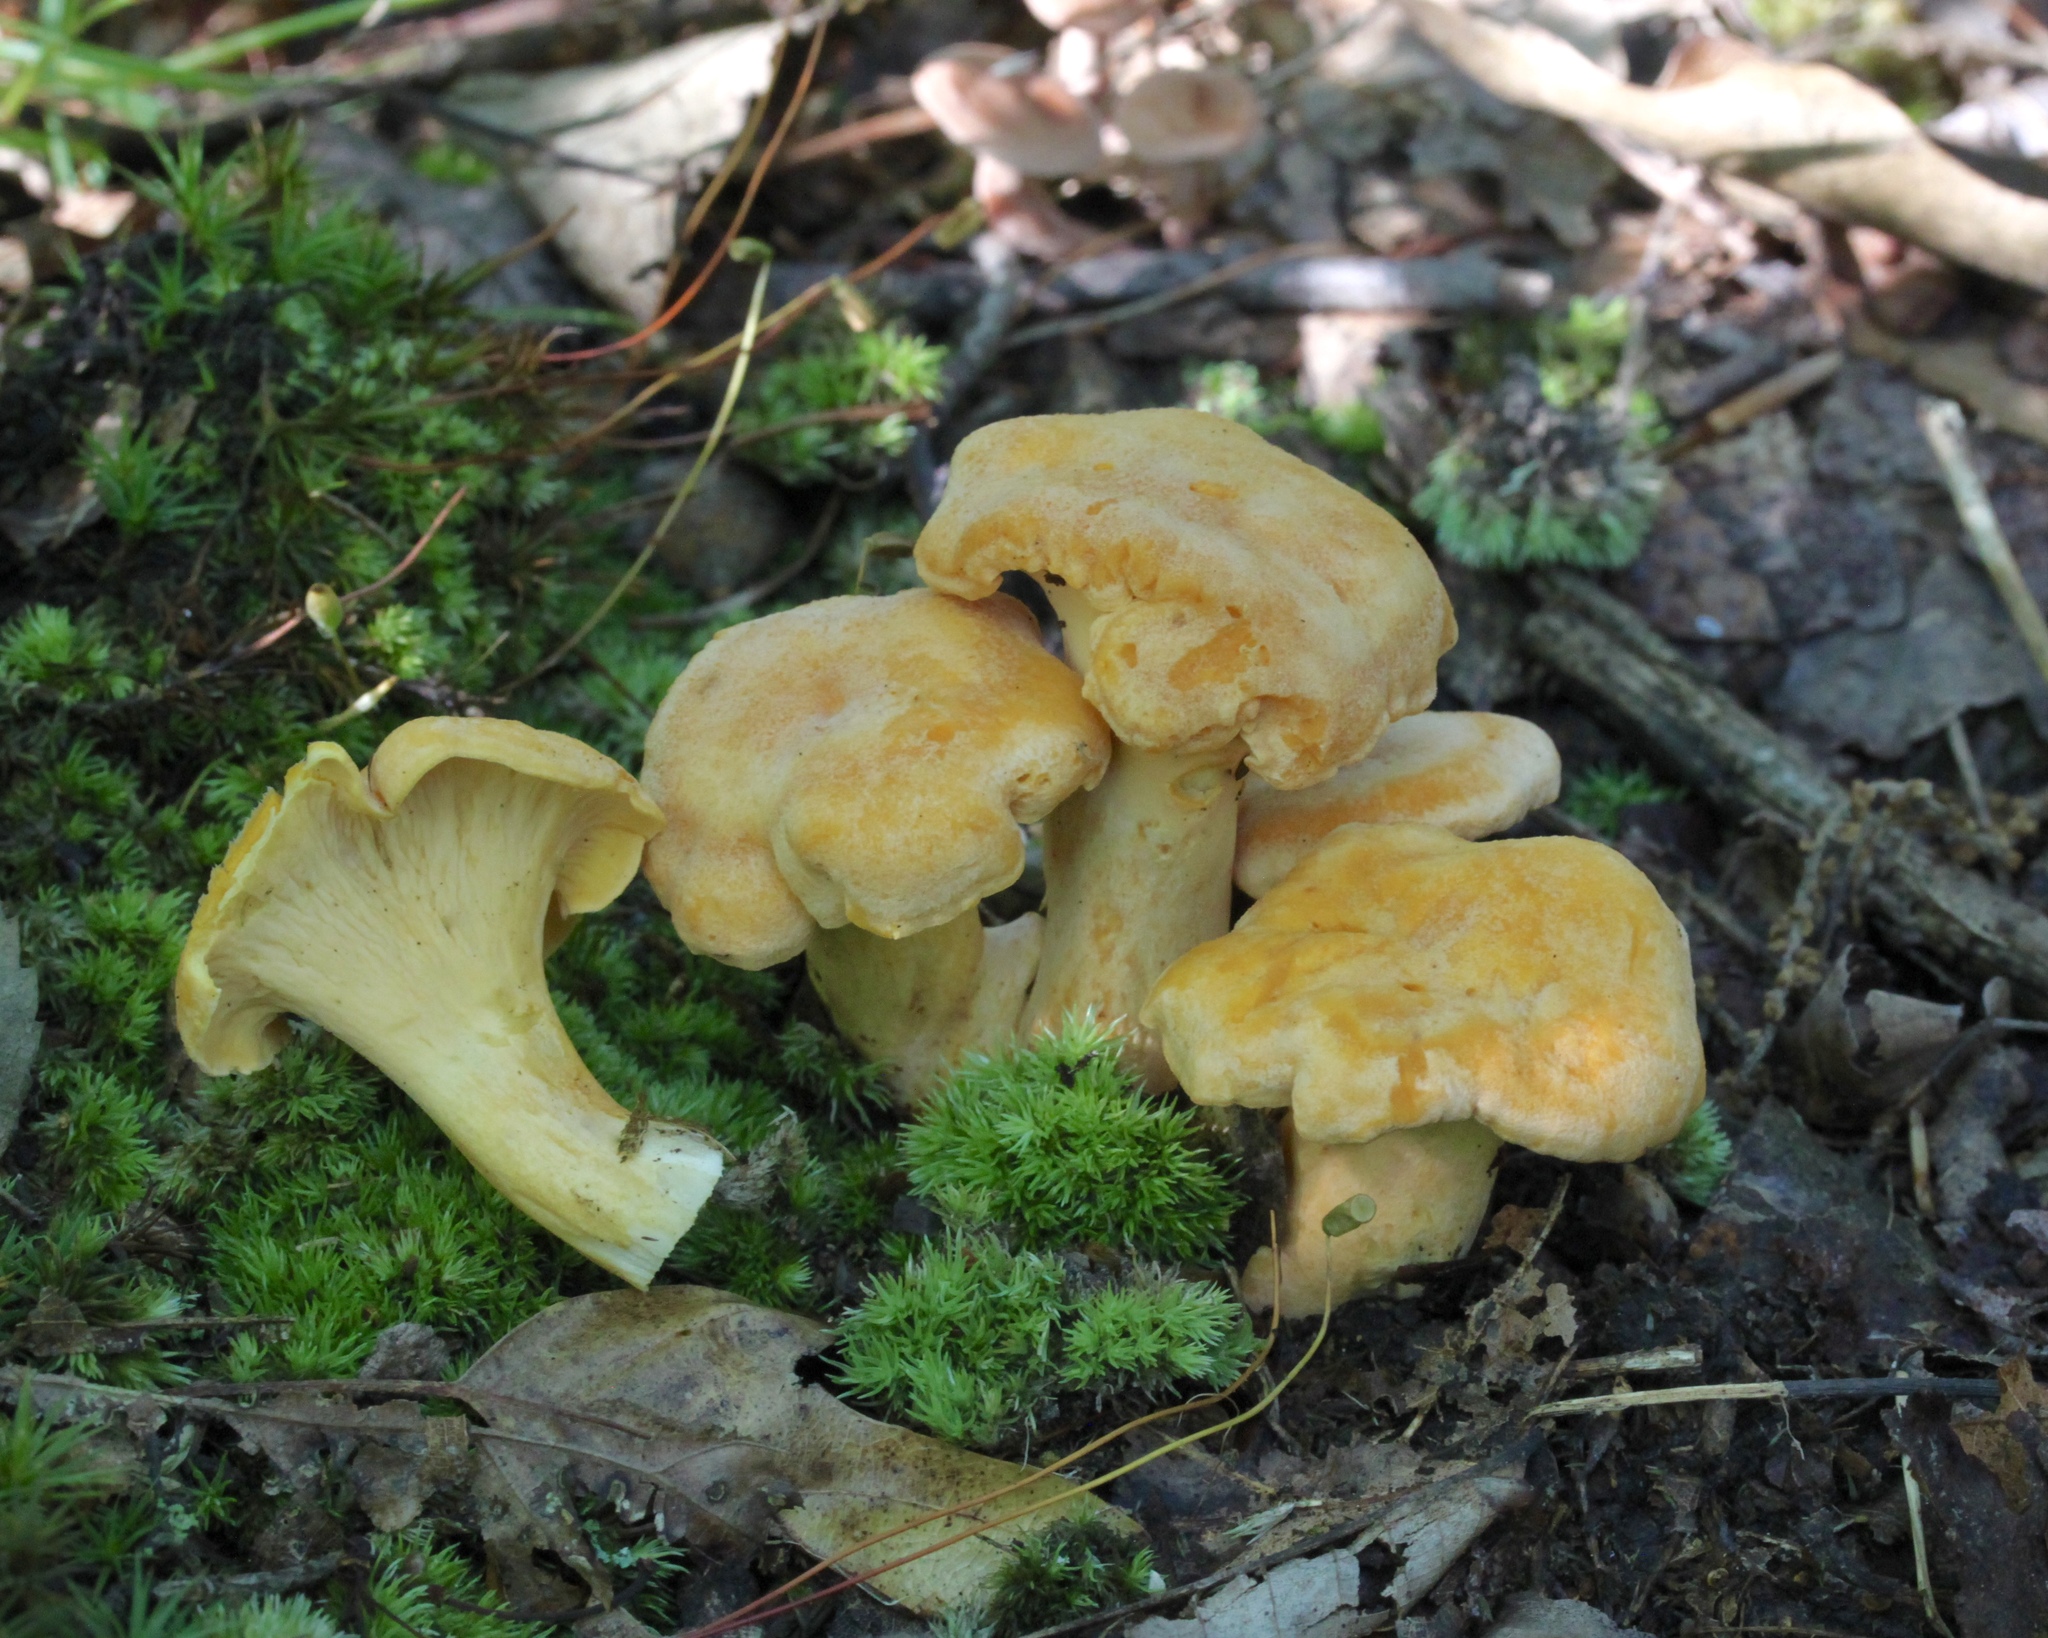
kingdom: Fungi
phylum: Basidiomycota
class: Agaricomycetes
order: Cantharellales
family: Hydnaceae
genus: Cantharellus
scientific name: Cantharellus
